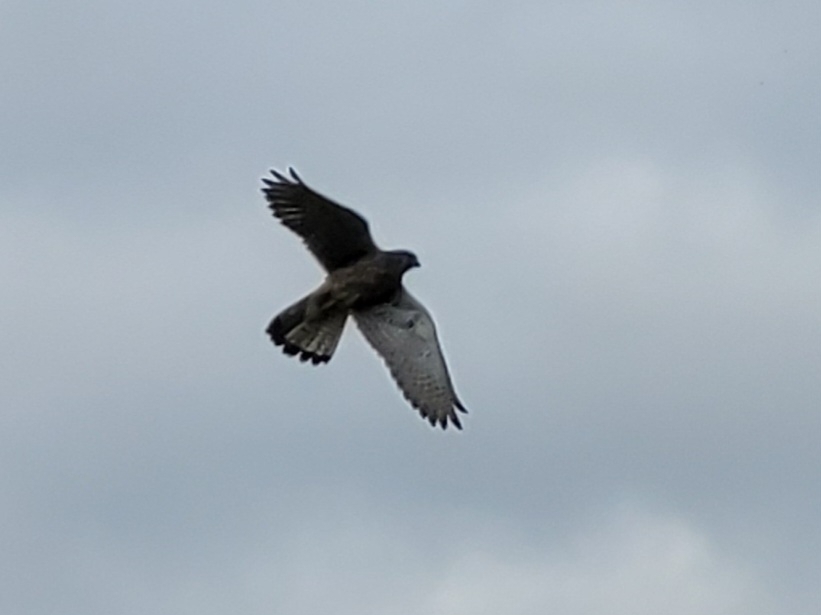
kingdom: Animalia
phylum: Chordata
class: Aves
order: Falconiformes
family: Falconidae
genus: Falco
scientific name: Falco tinnunculus
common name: Common kestrel
